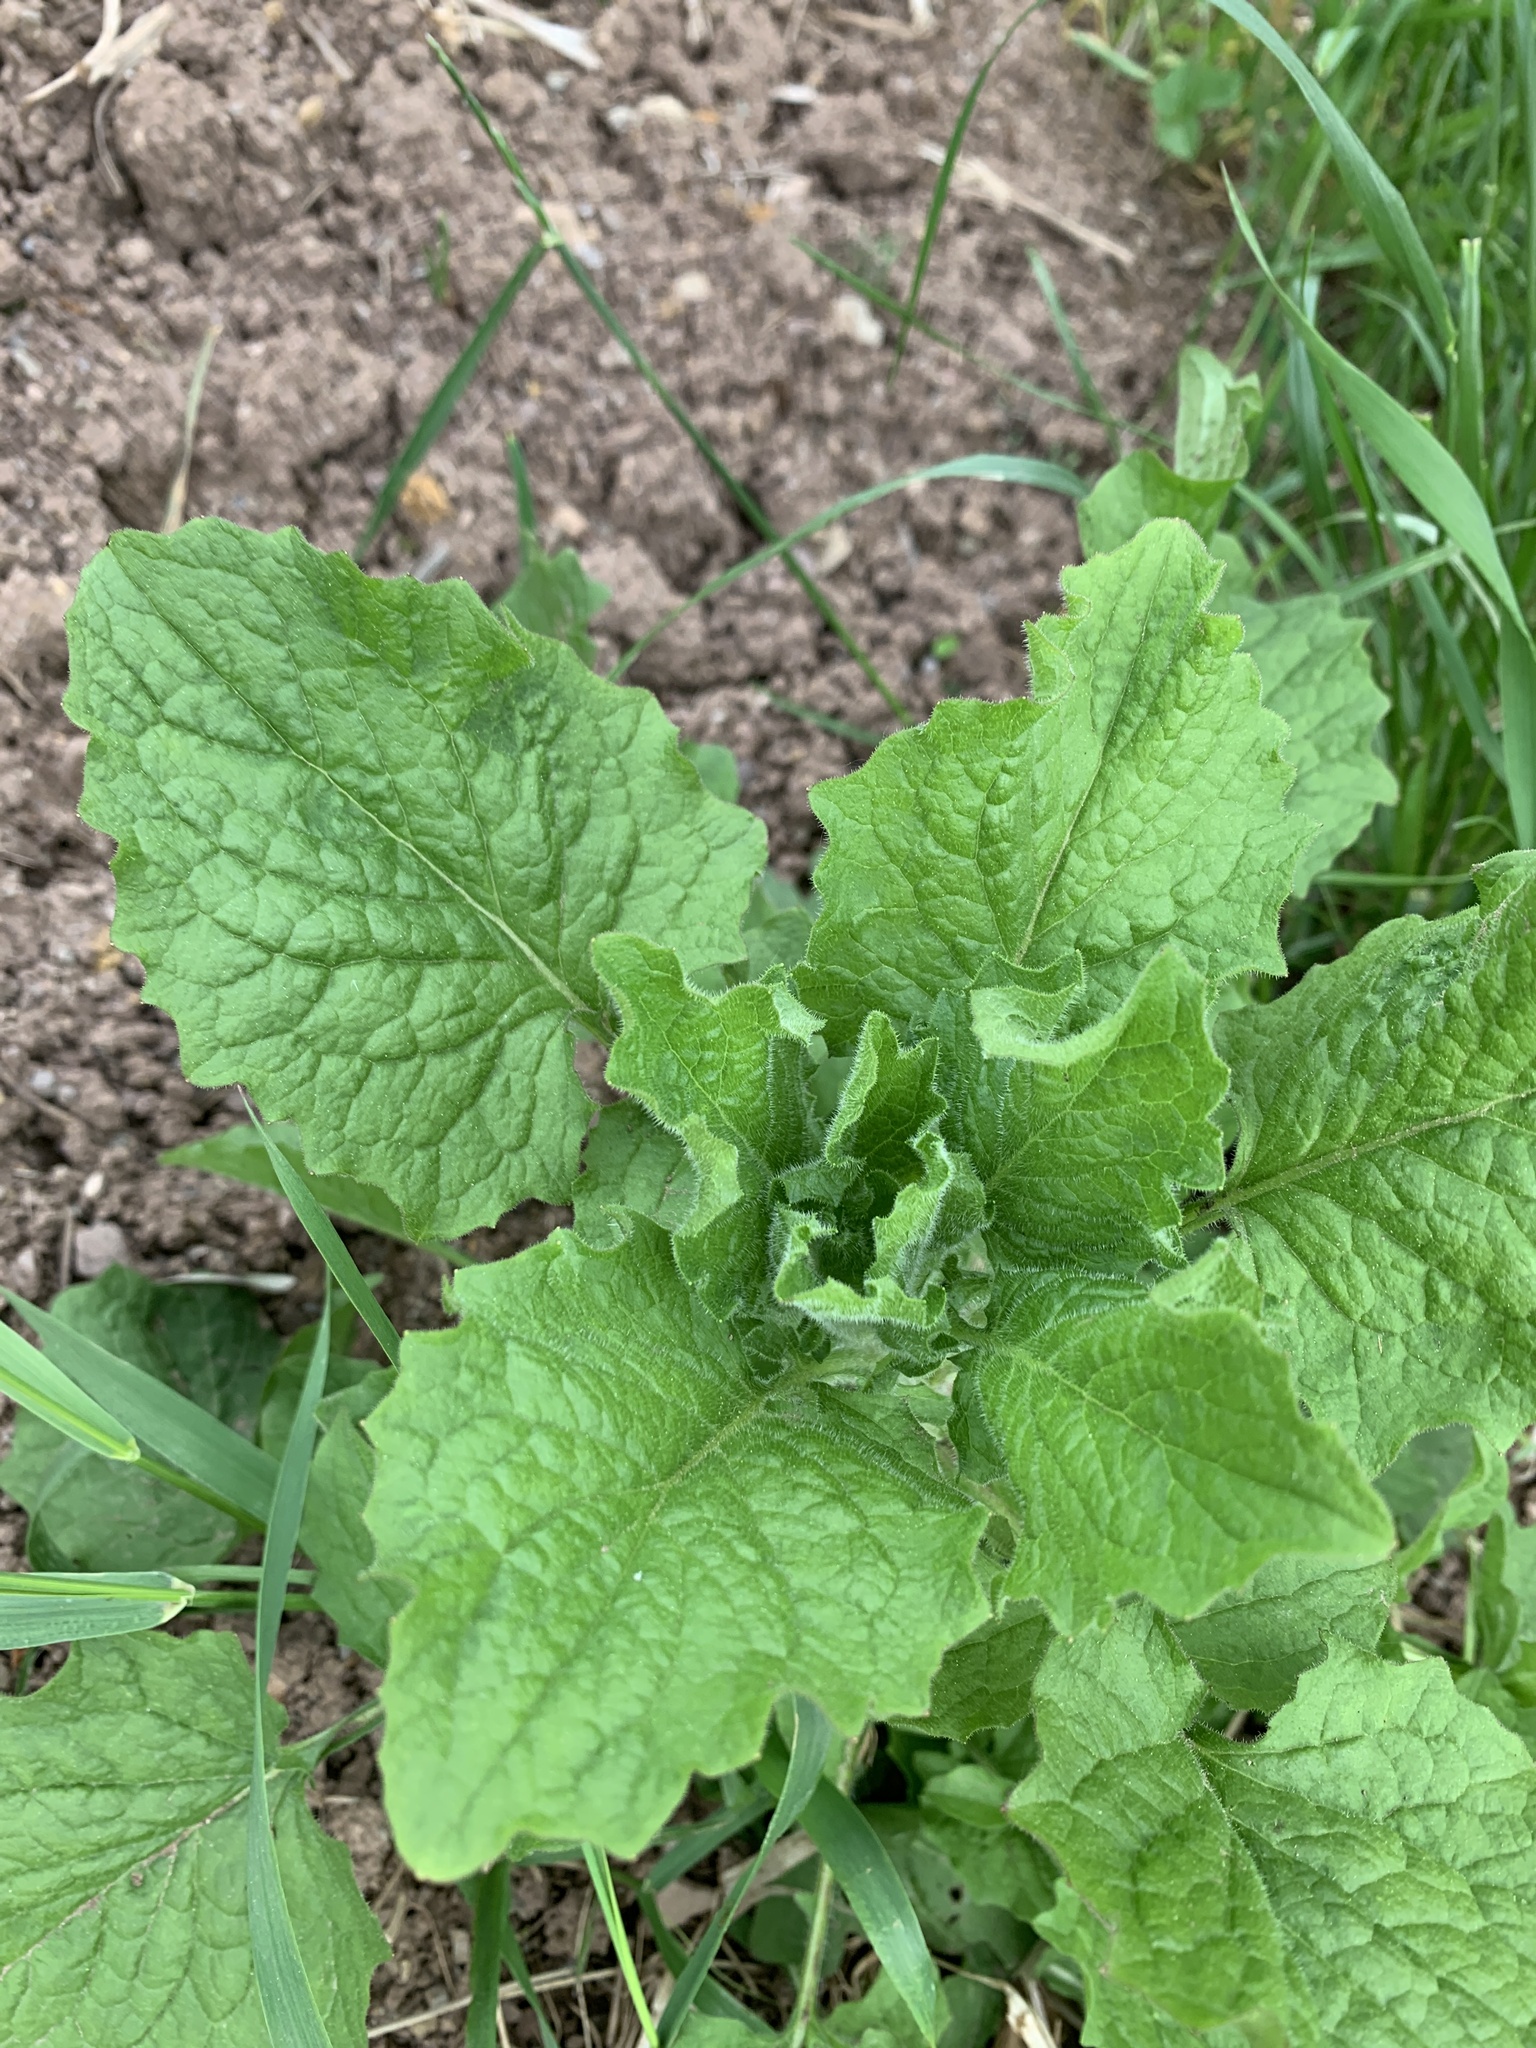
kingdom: Plantae
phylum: Tracheophyta
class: Magnoliopsida
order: Asterales
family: Asteraceae
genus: Lapsana
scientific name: Lapsana communis
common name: Nipplewort
